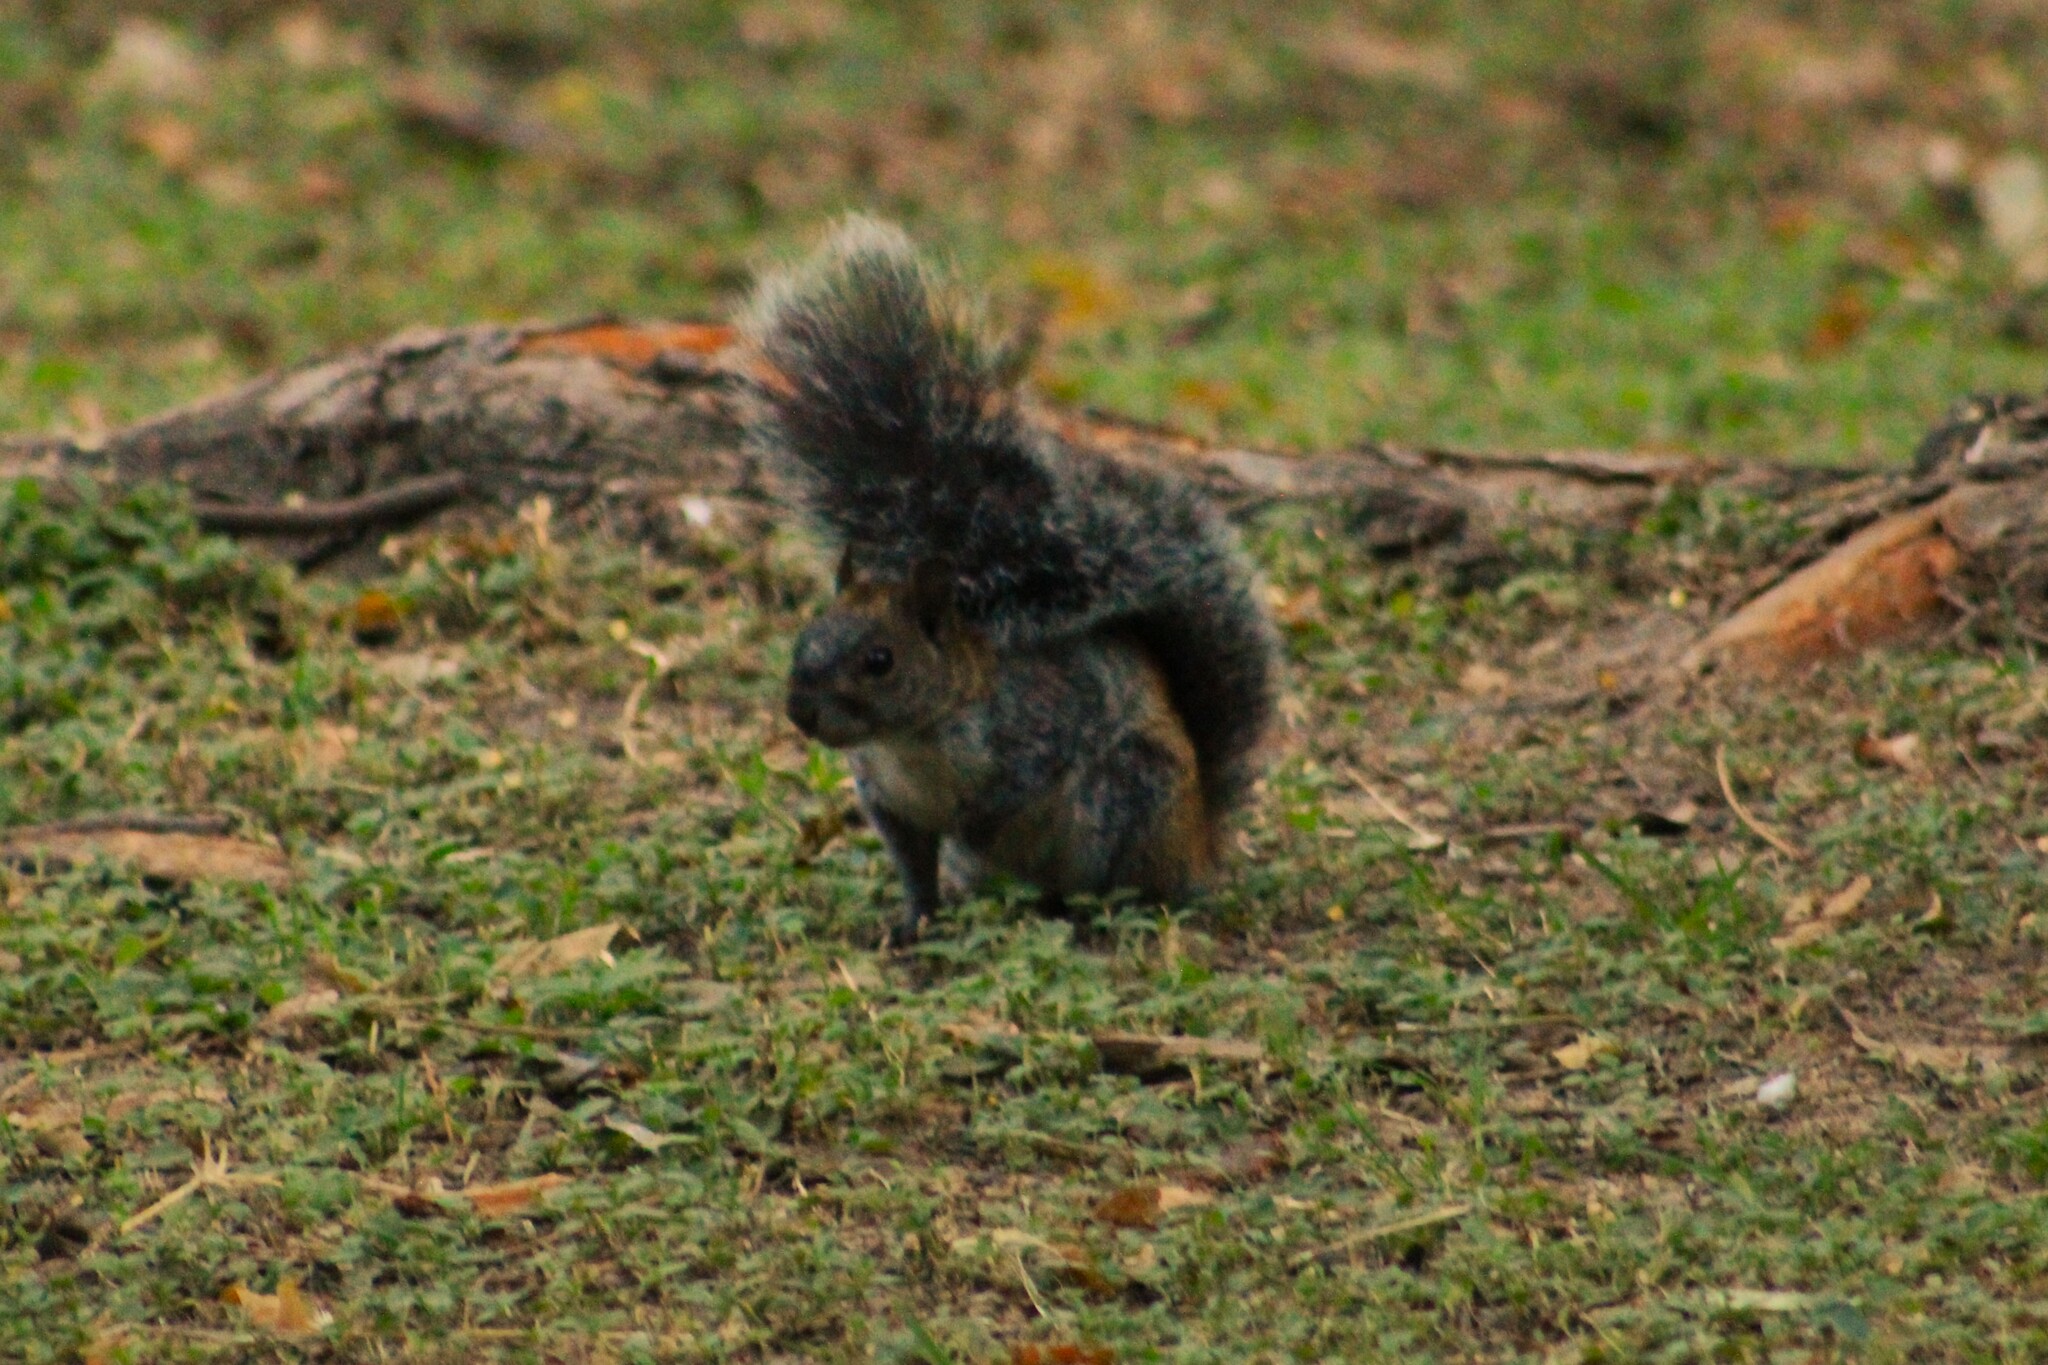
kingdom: Animalia
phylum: Chordata
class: Mammalia
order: Rodentia
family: Sciuridae
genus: Sciurus
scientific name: Sciurus aureogaster
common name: Red-bellied squirrel
